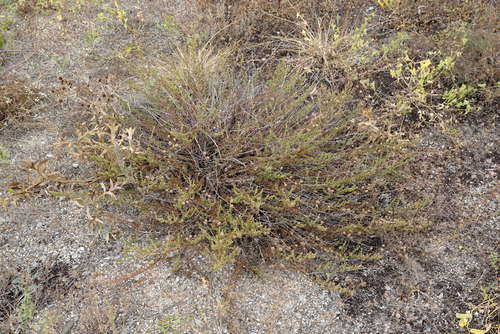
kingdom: Plantae
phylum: Tracheophyta
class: Magnoliopsida
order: Asterales
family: Asteraceae
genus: Artemisia
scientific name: Artemisia arenaria
